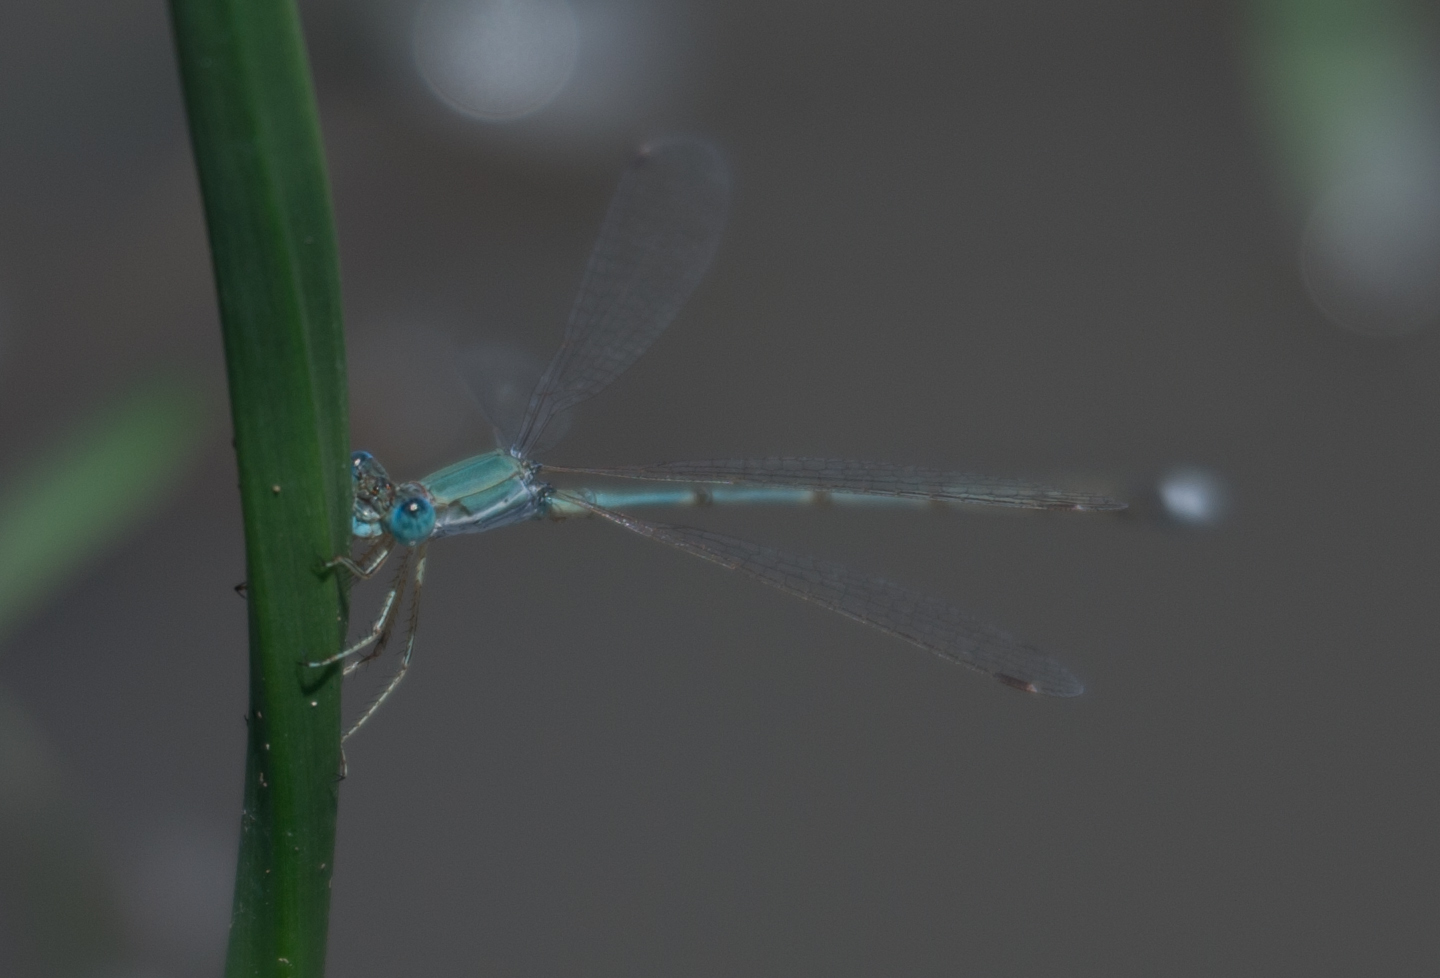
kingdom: Animalia
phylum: Arthropoda
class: Insecta
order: Odonata
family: Lestidae
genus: Lestes
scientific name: Lestes pallidus
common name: Pallid spreadwing
